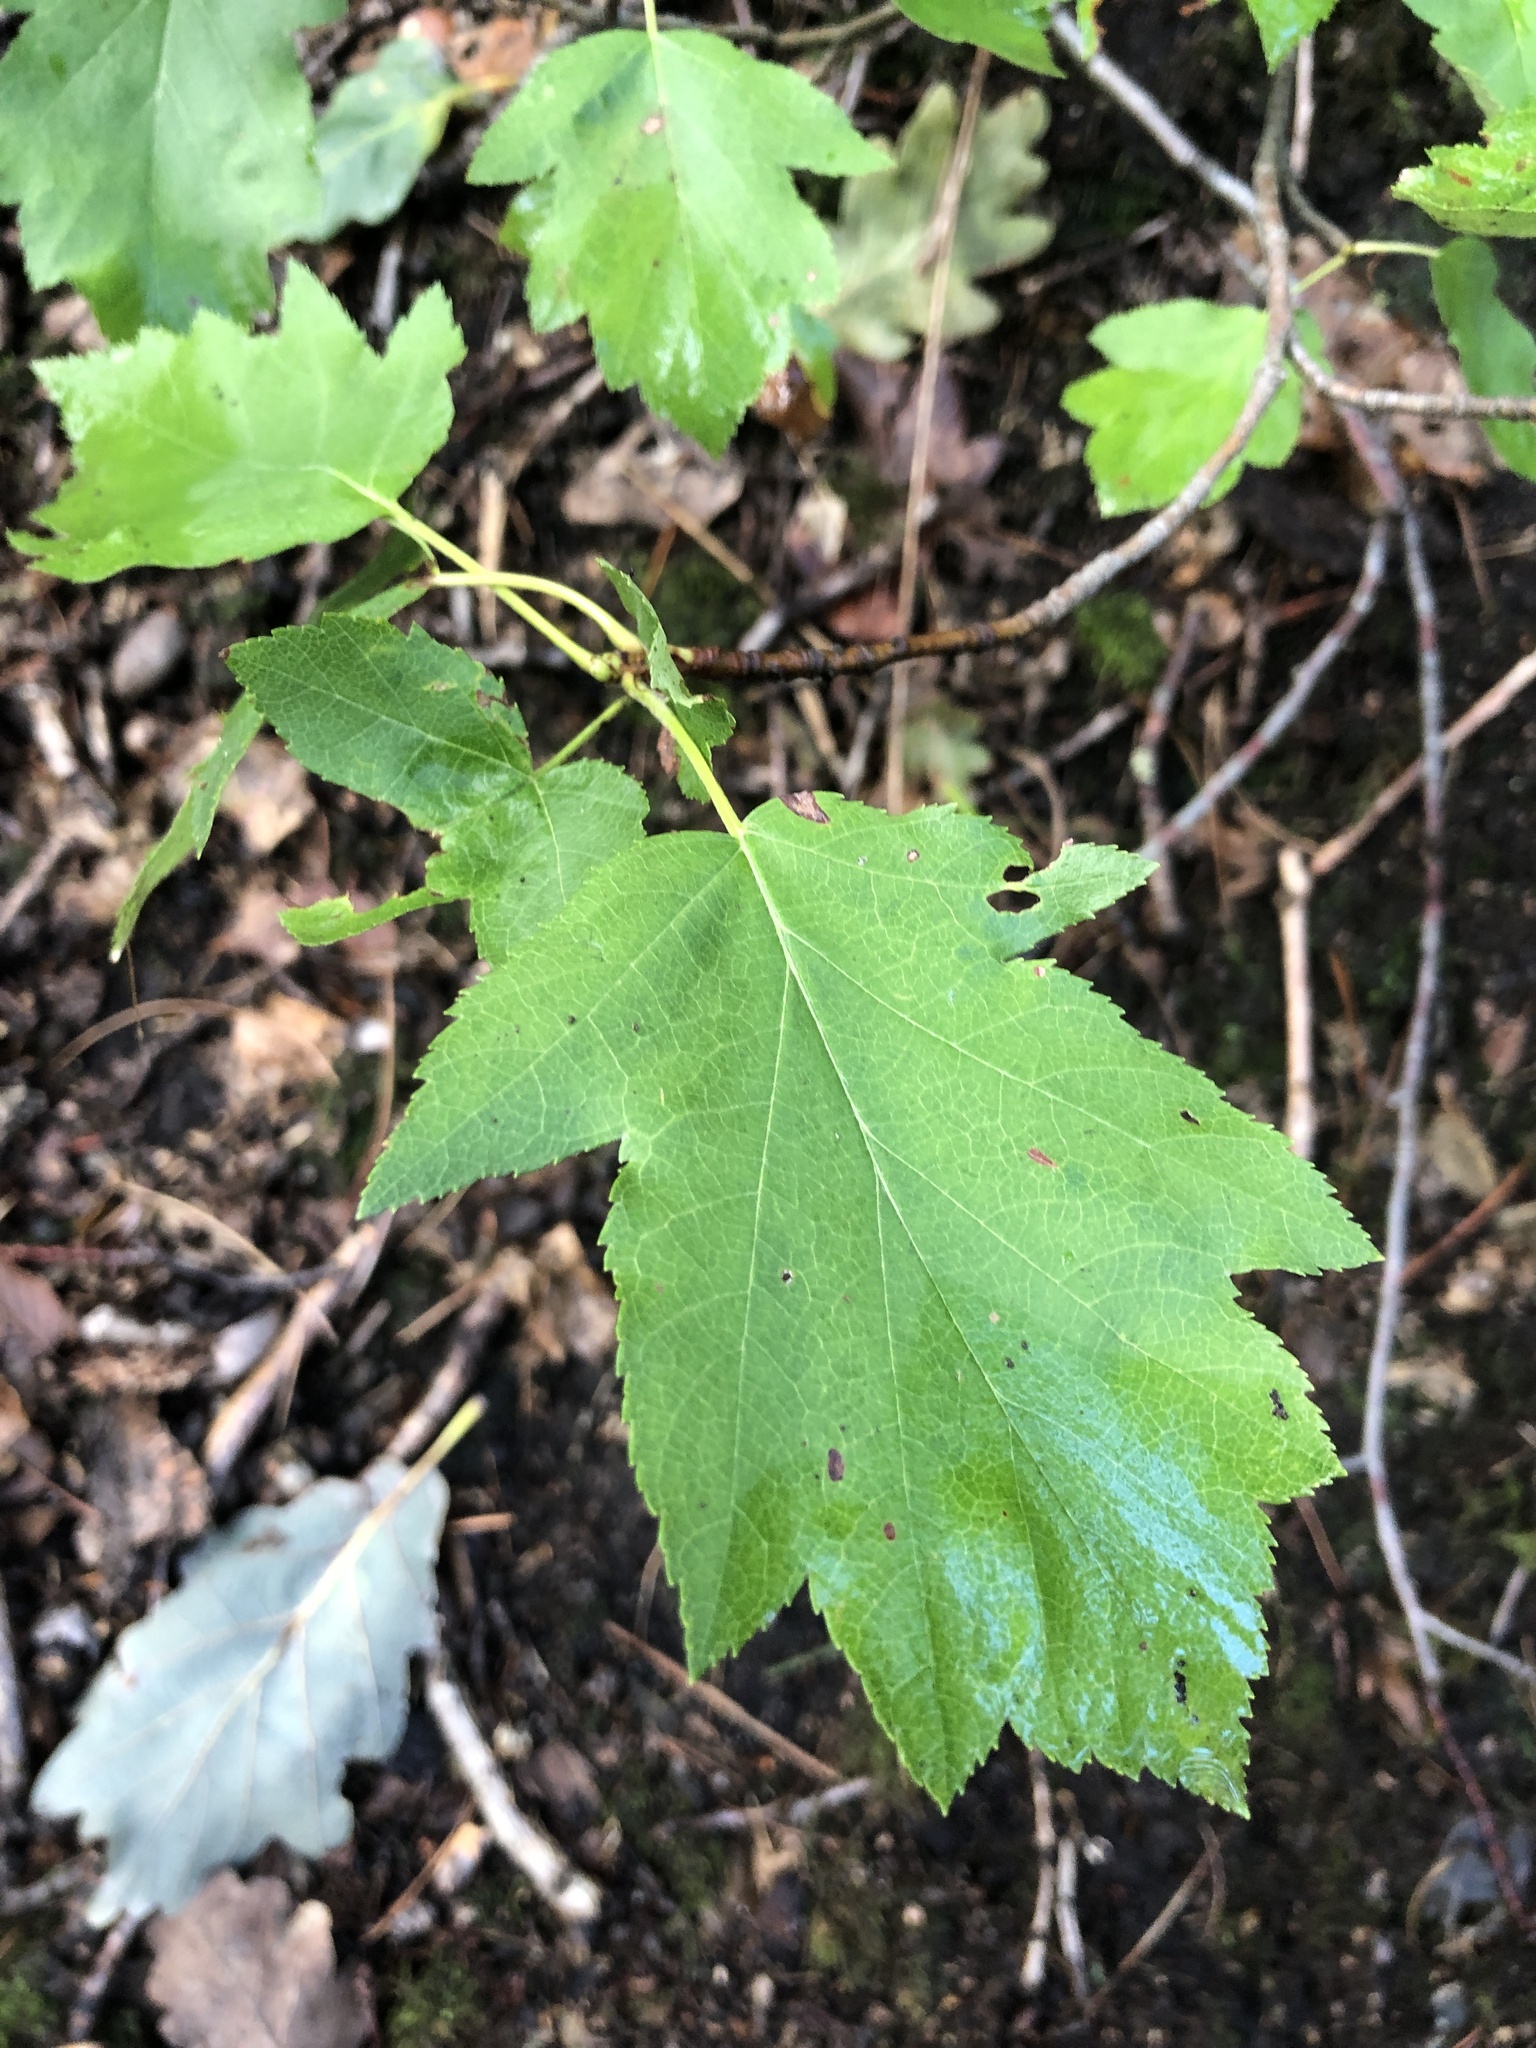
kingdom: Plantae
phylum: Tracheophyta
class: Magnoliopsida
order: Rosales
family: Rosaceae
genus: Torminalis
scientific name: Torminalis glaberrima
